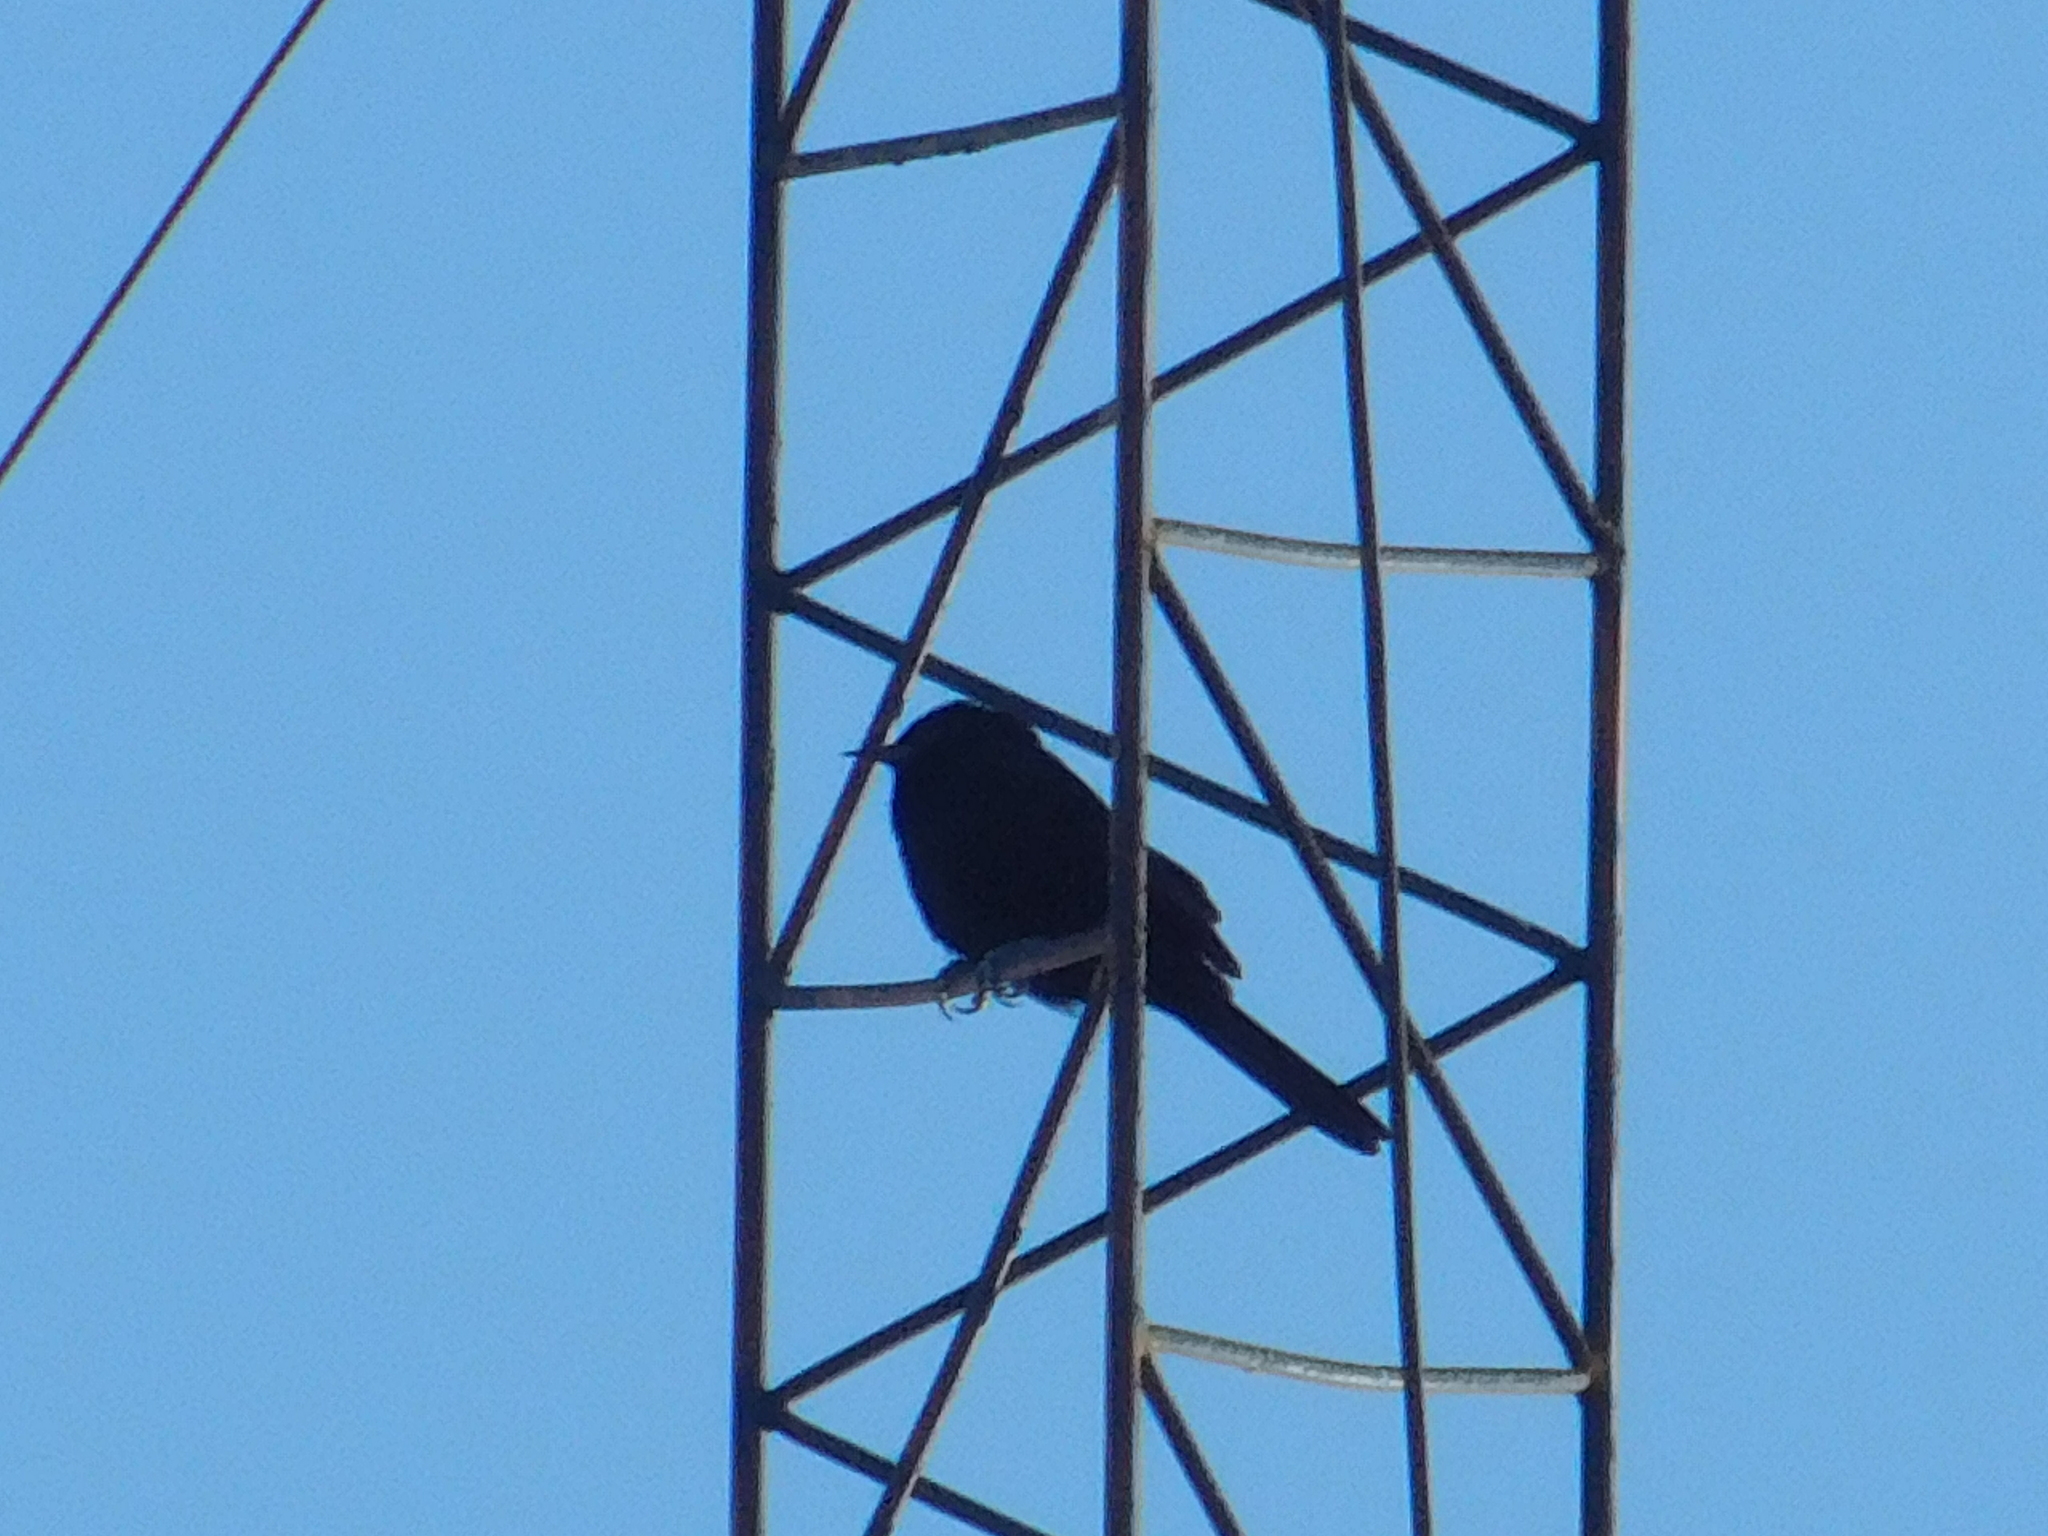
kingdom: Animalia
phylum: Chordata
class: Aves
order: Passeriformes
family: Icteridae
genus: Icterus
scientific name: Icterus cayanensis
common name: Epaulet oriole
